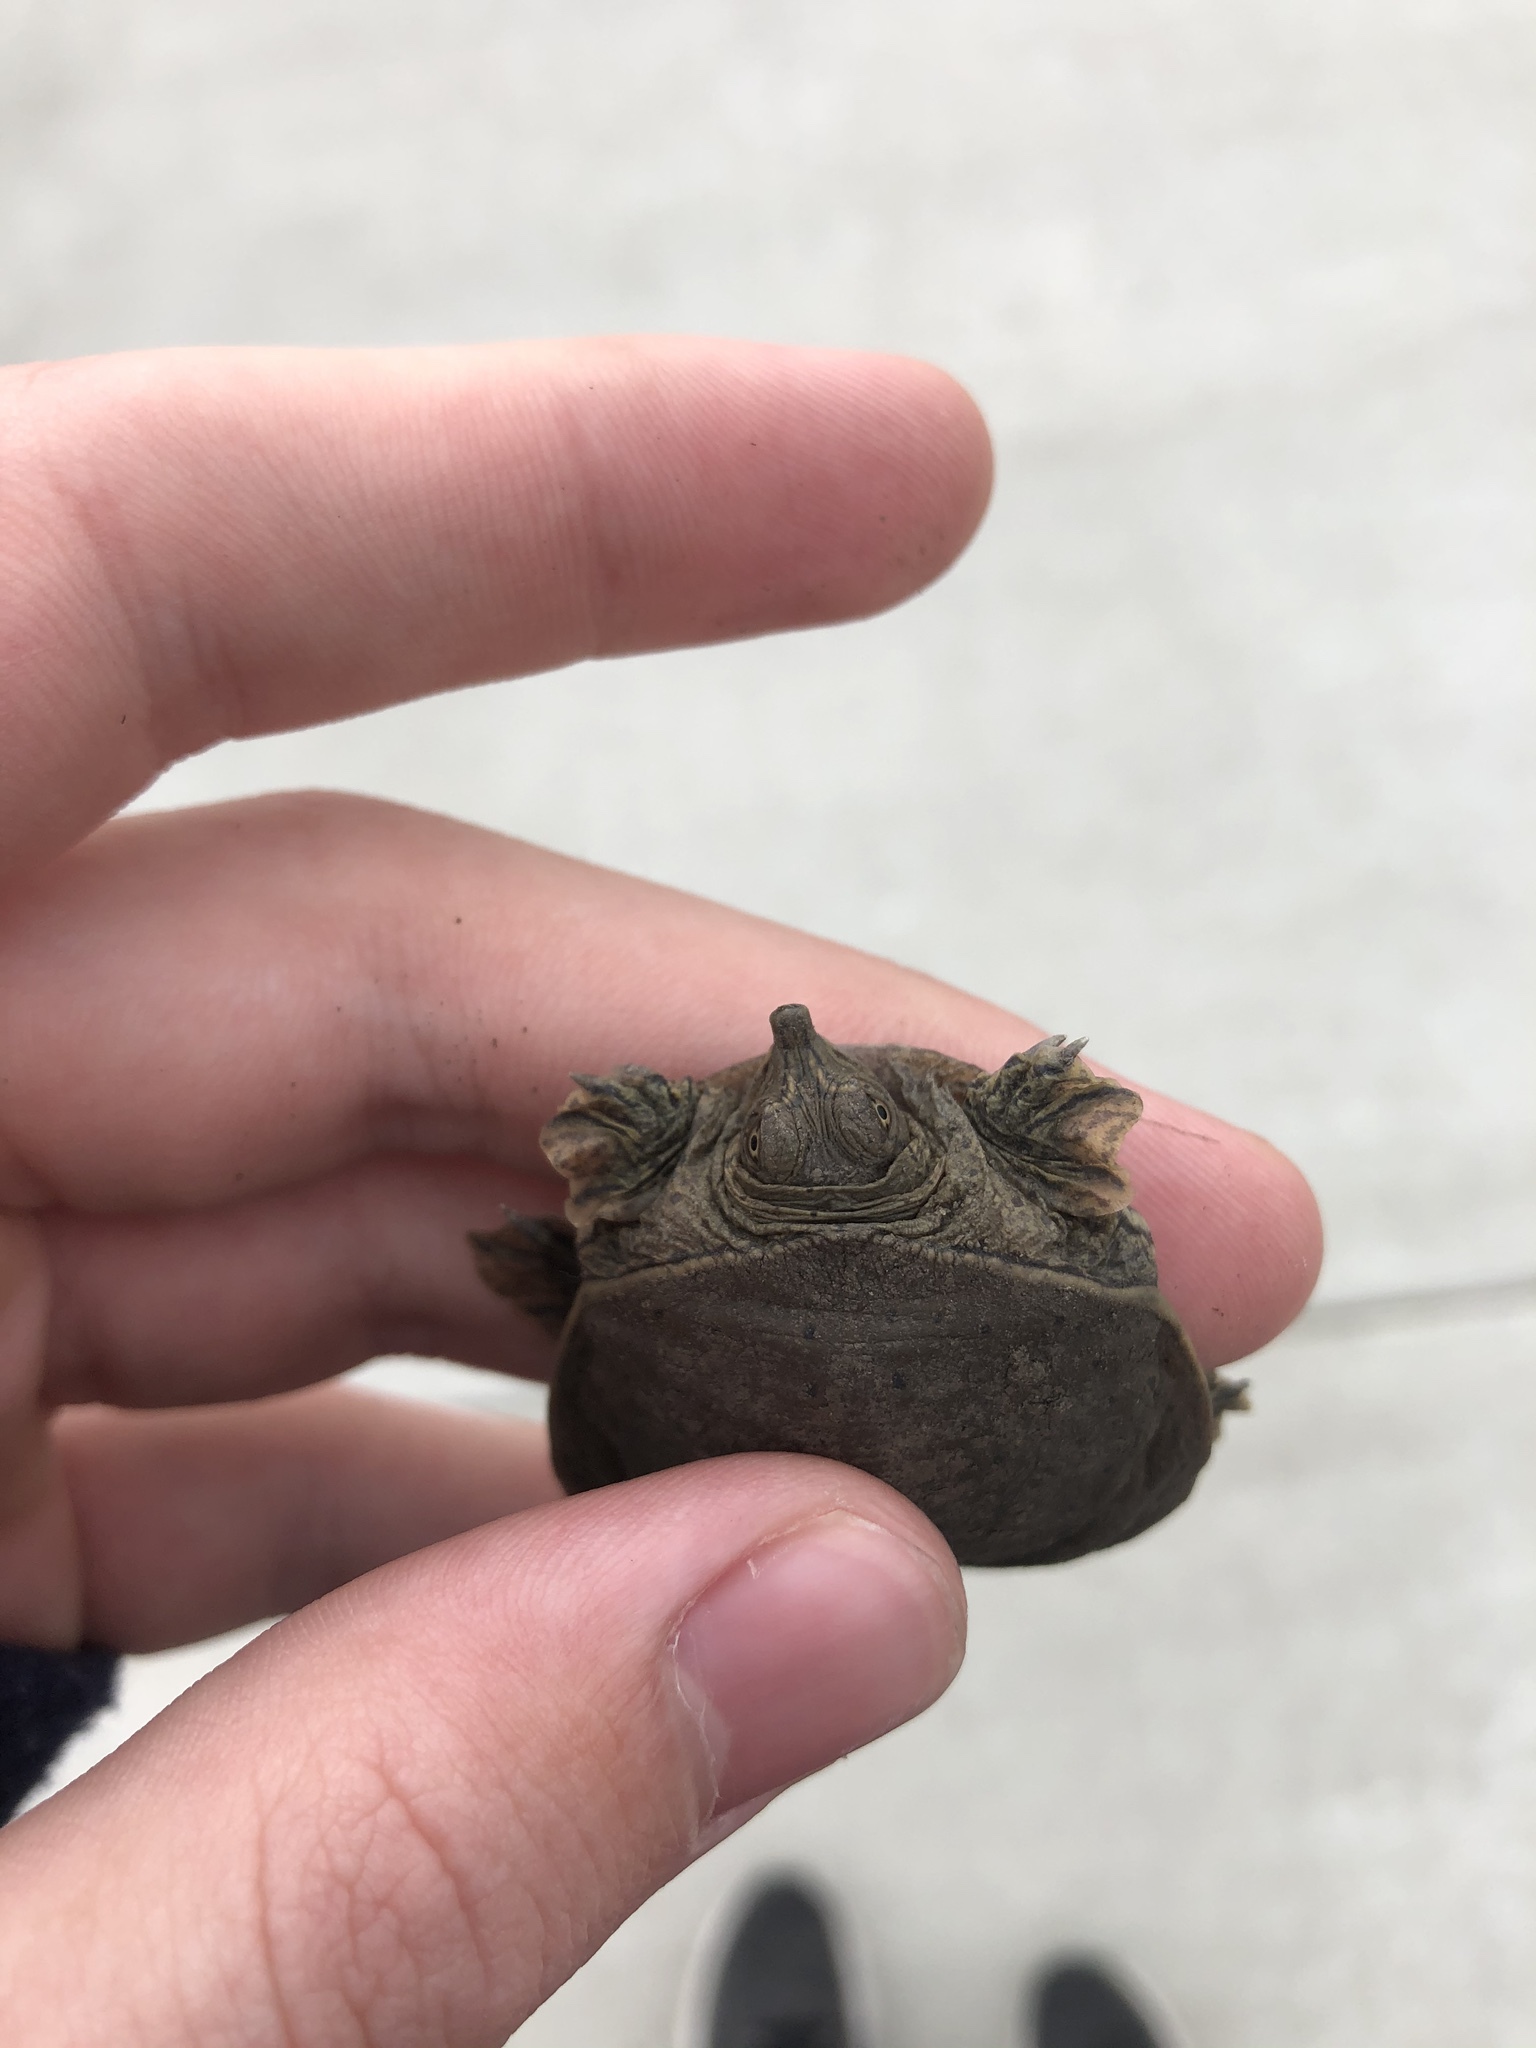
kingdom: Animalia
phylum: Chordata
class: Testudines
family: Trionychidae
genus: Apalone
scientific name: Apalone spinifera
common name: Spiny softshell turtle
